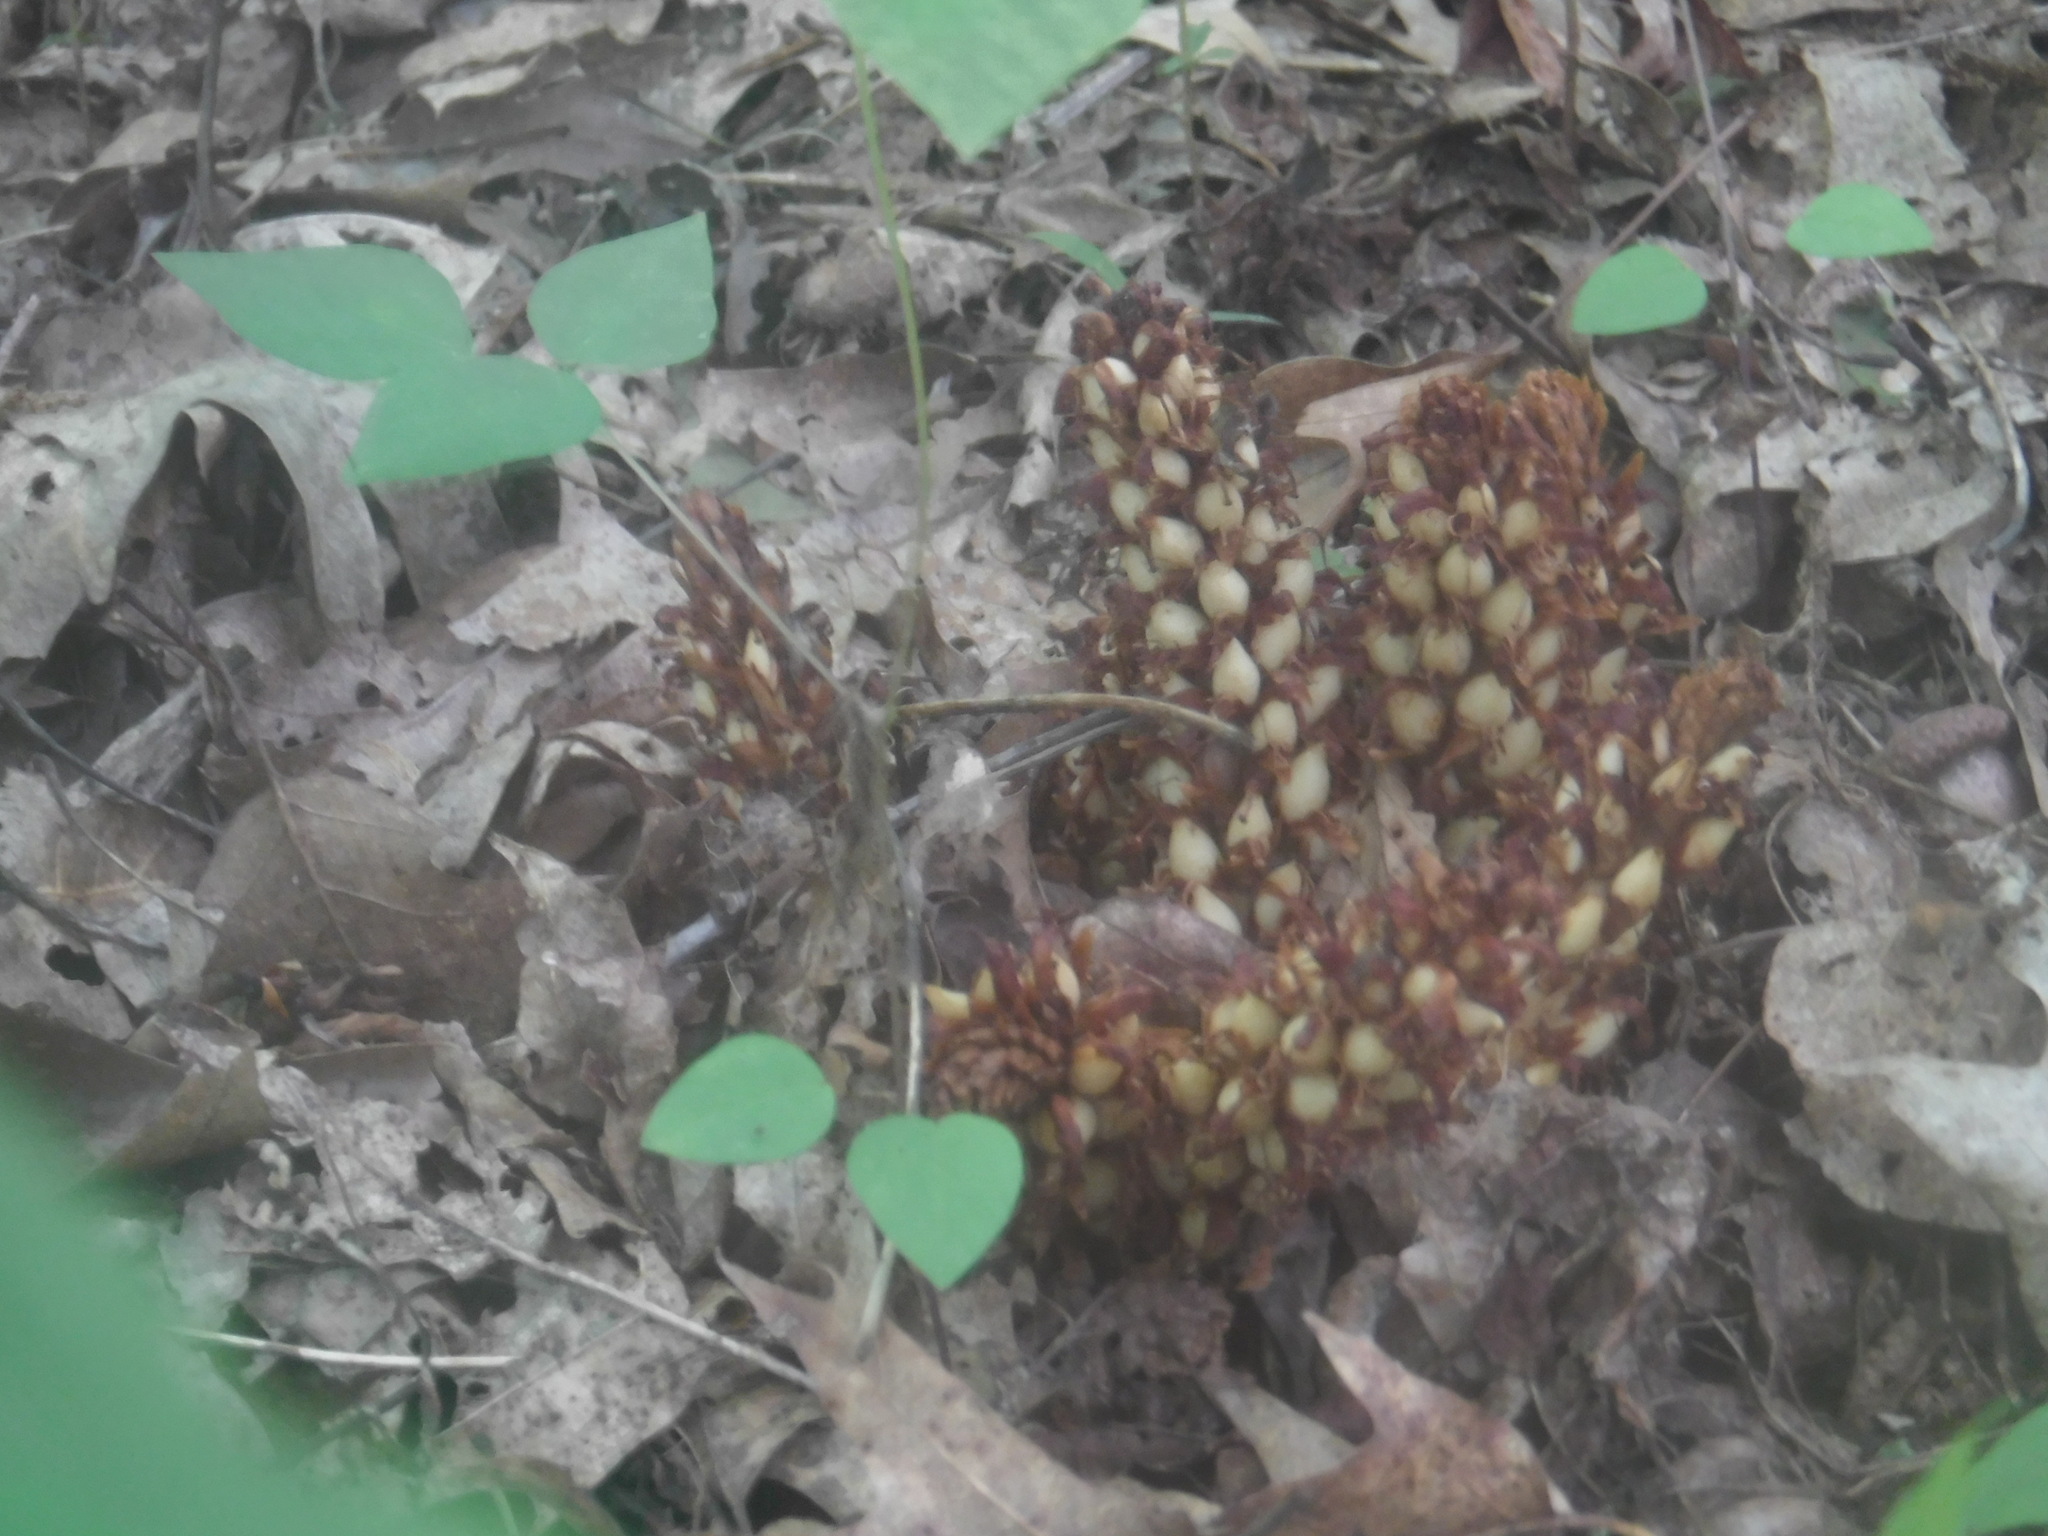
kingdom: Plantae
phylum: Tracheophyta
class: Magnoliopsida
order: Lamiales
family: Orobanchaceae
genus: Conopholis
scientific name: Conopholis americana
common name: American cancer-root
